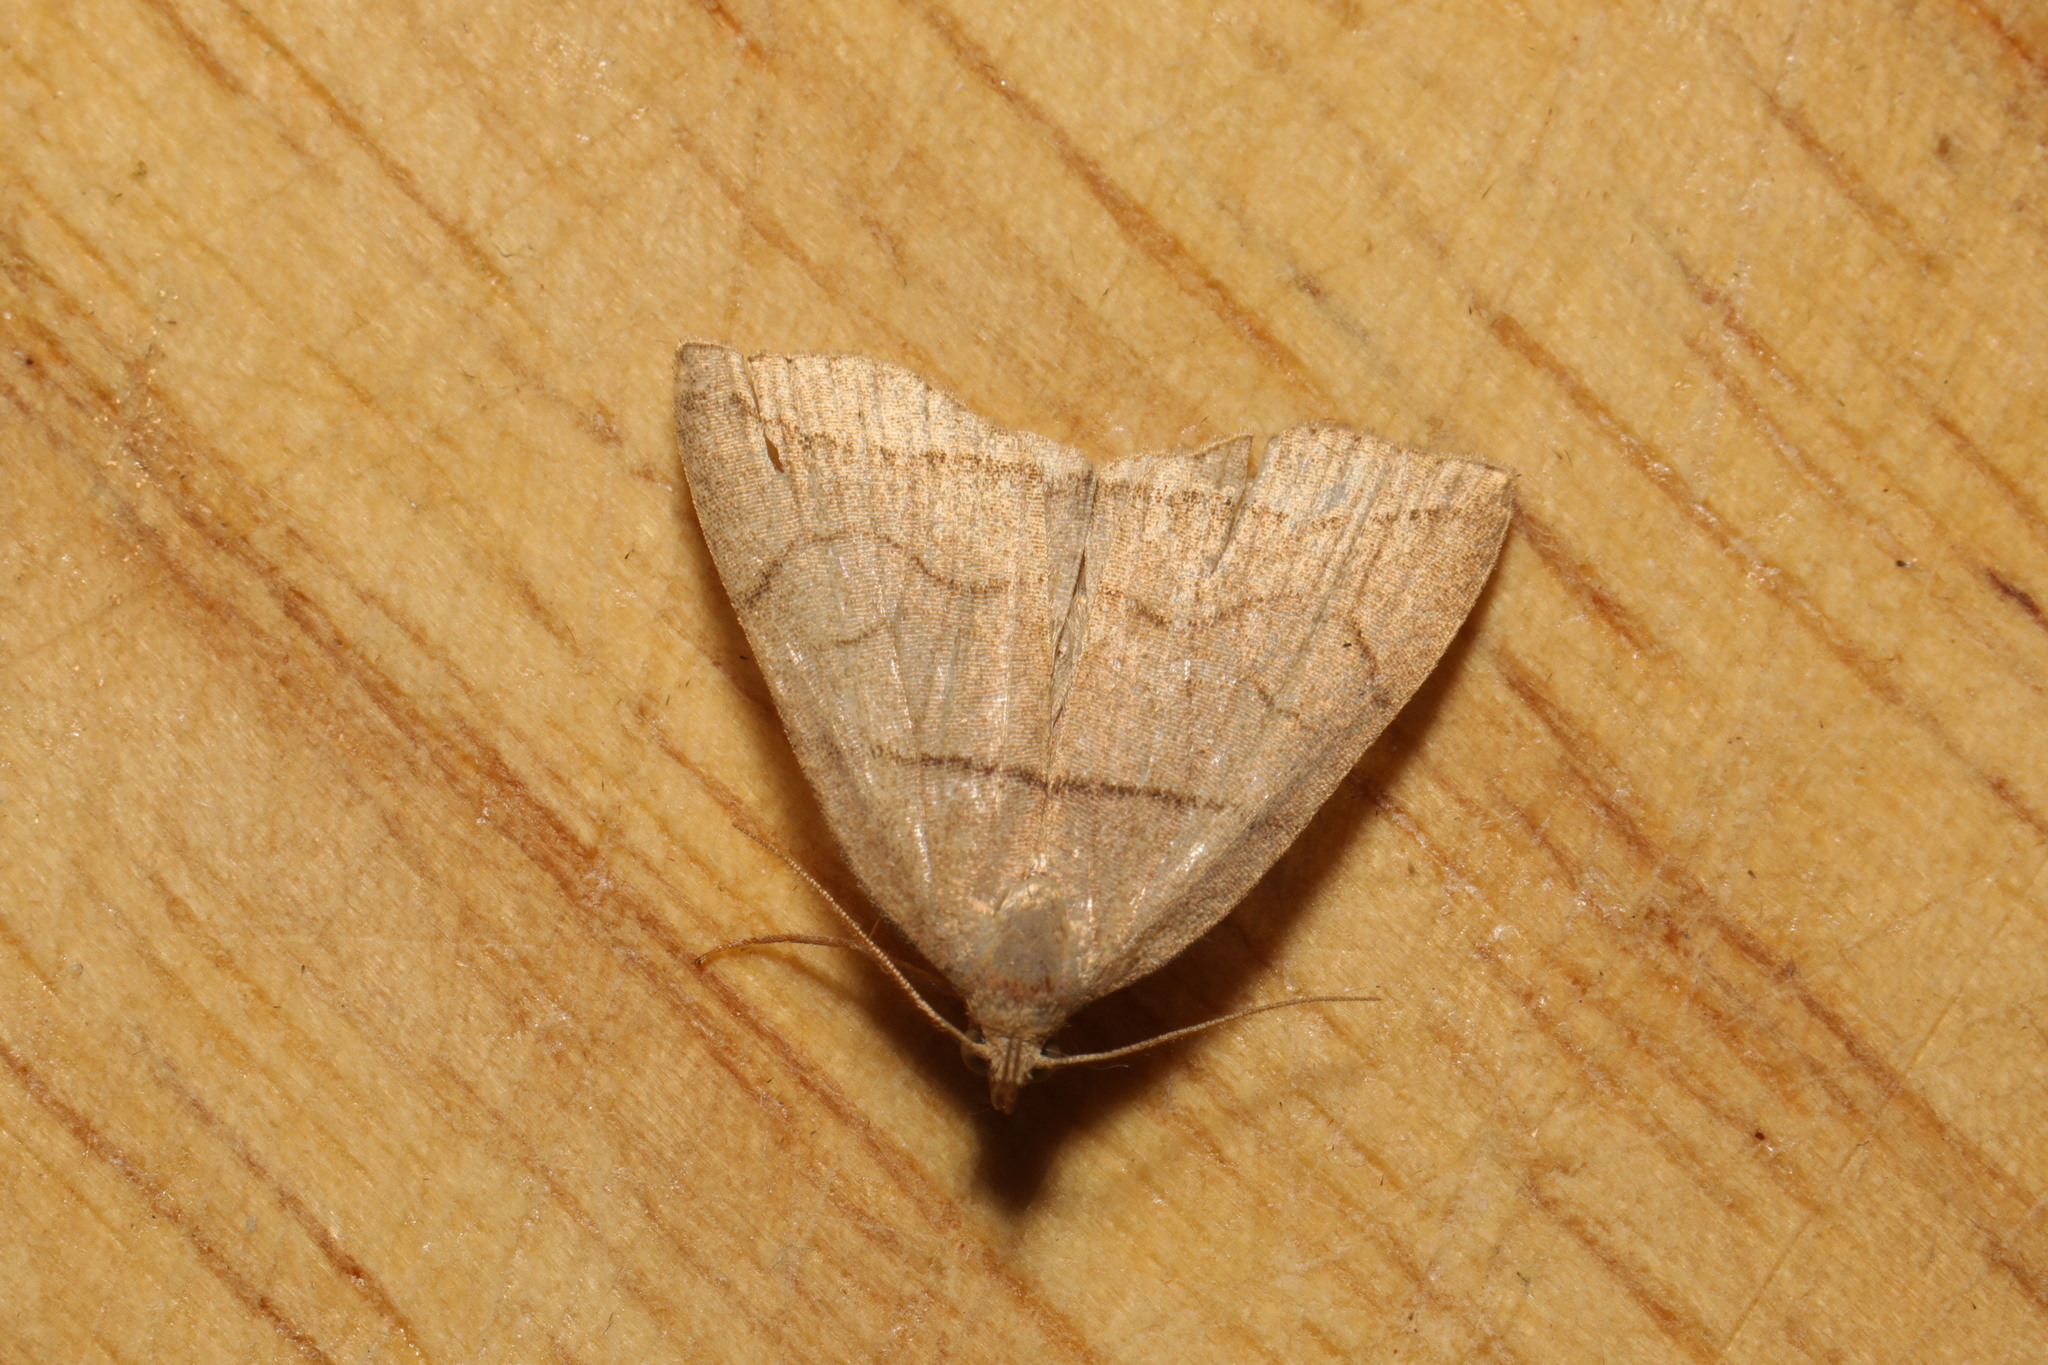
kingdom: Animalia
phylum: Arthropoda
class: Insecta
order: Lepidoptera
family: Erebidae
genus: Herminia
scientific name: Herminia grisealis
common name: Small fan-foot
